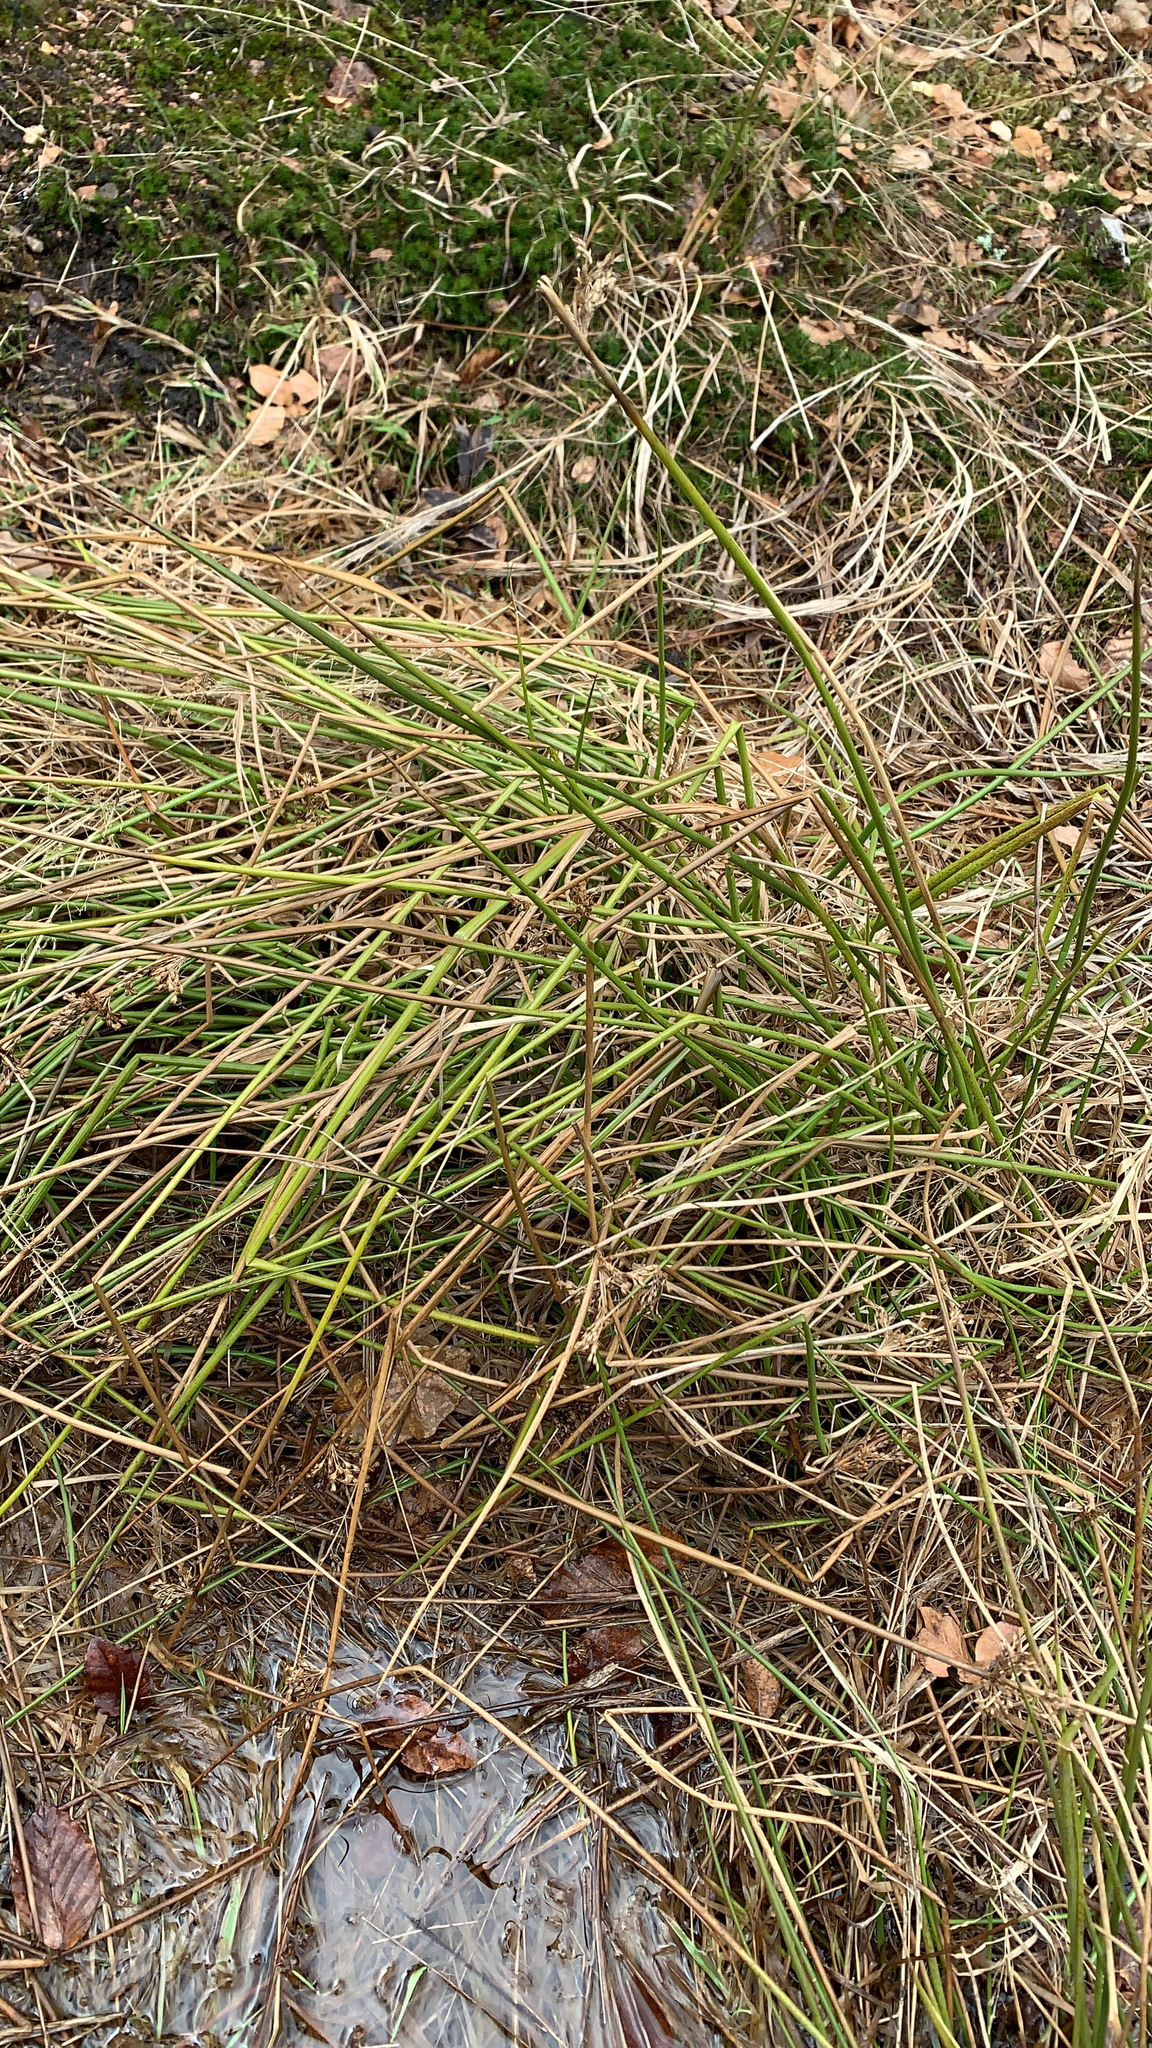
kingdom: Plantae
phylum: Tracheophyta
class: Liliopsida
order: Poales
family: Juncaceae
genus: Juncus
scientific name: Juncus effusus
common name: Soft rush
